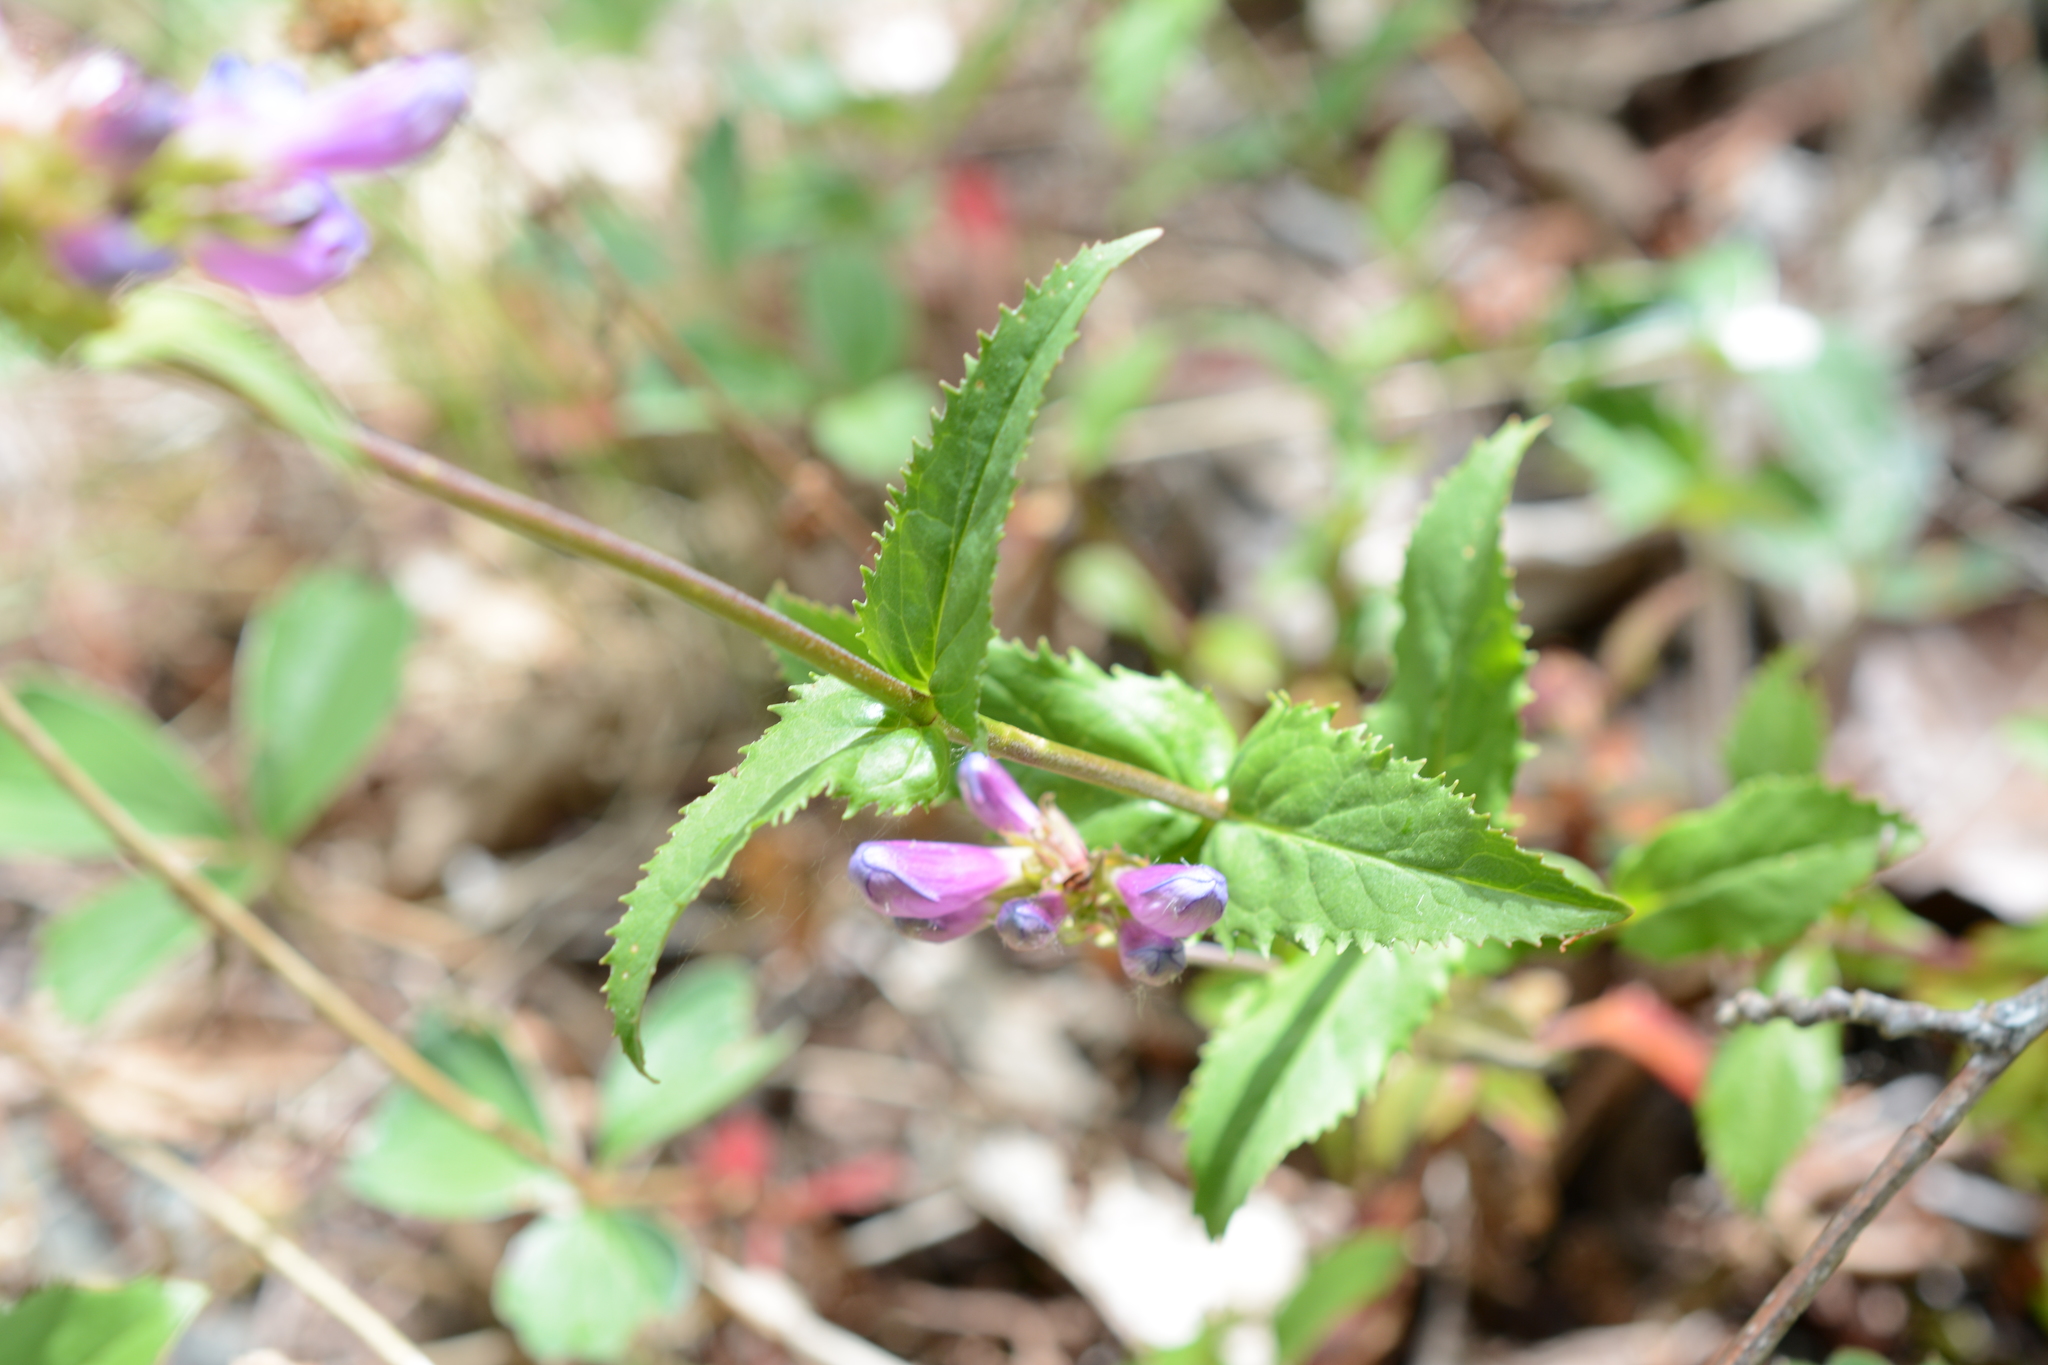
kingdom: Plantae
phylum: Tracheophyta
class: Magnoliopsida
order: Lamiales
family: Plantaginaceae
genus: Penstemon
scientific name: Penstemon serrulatus
